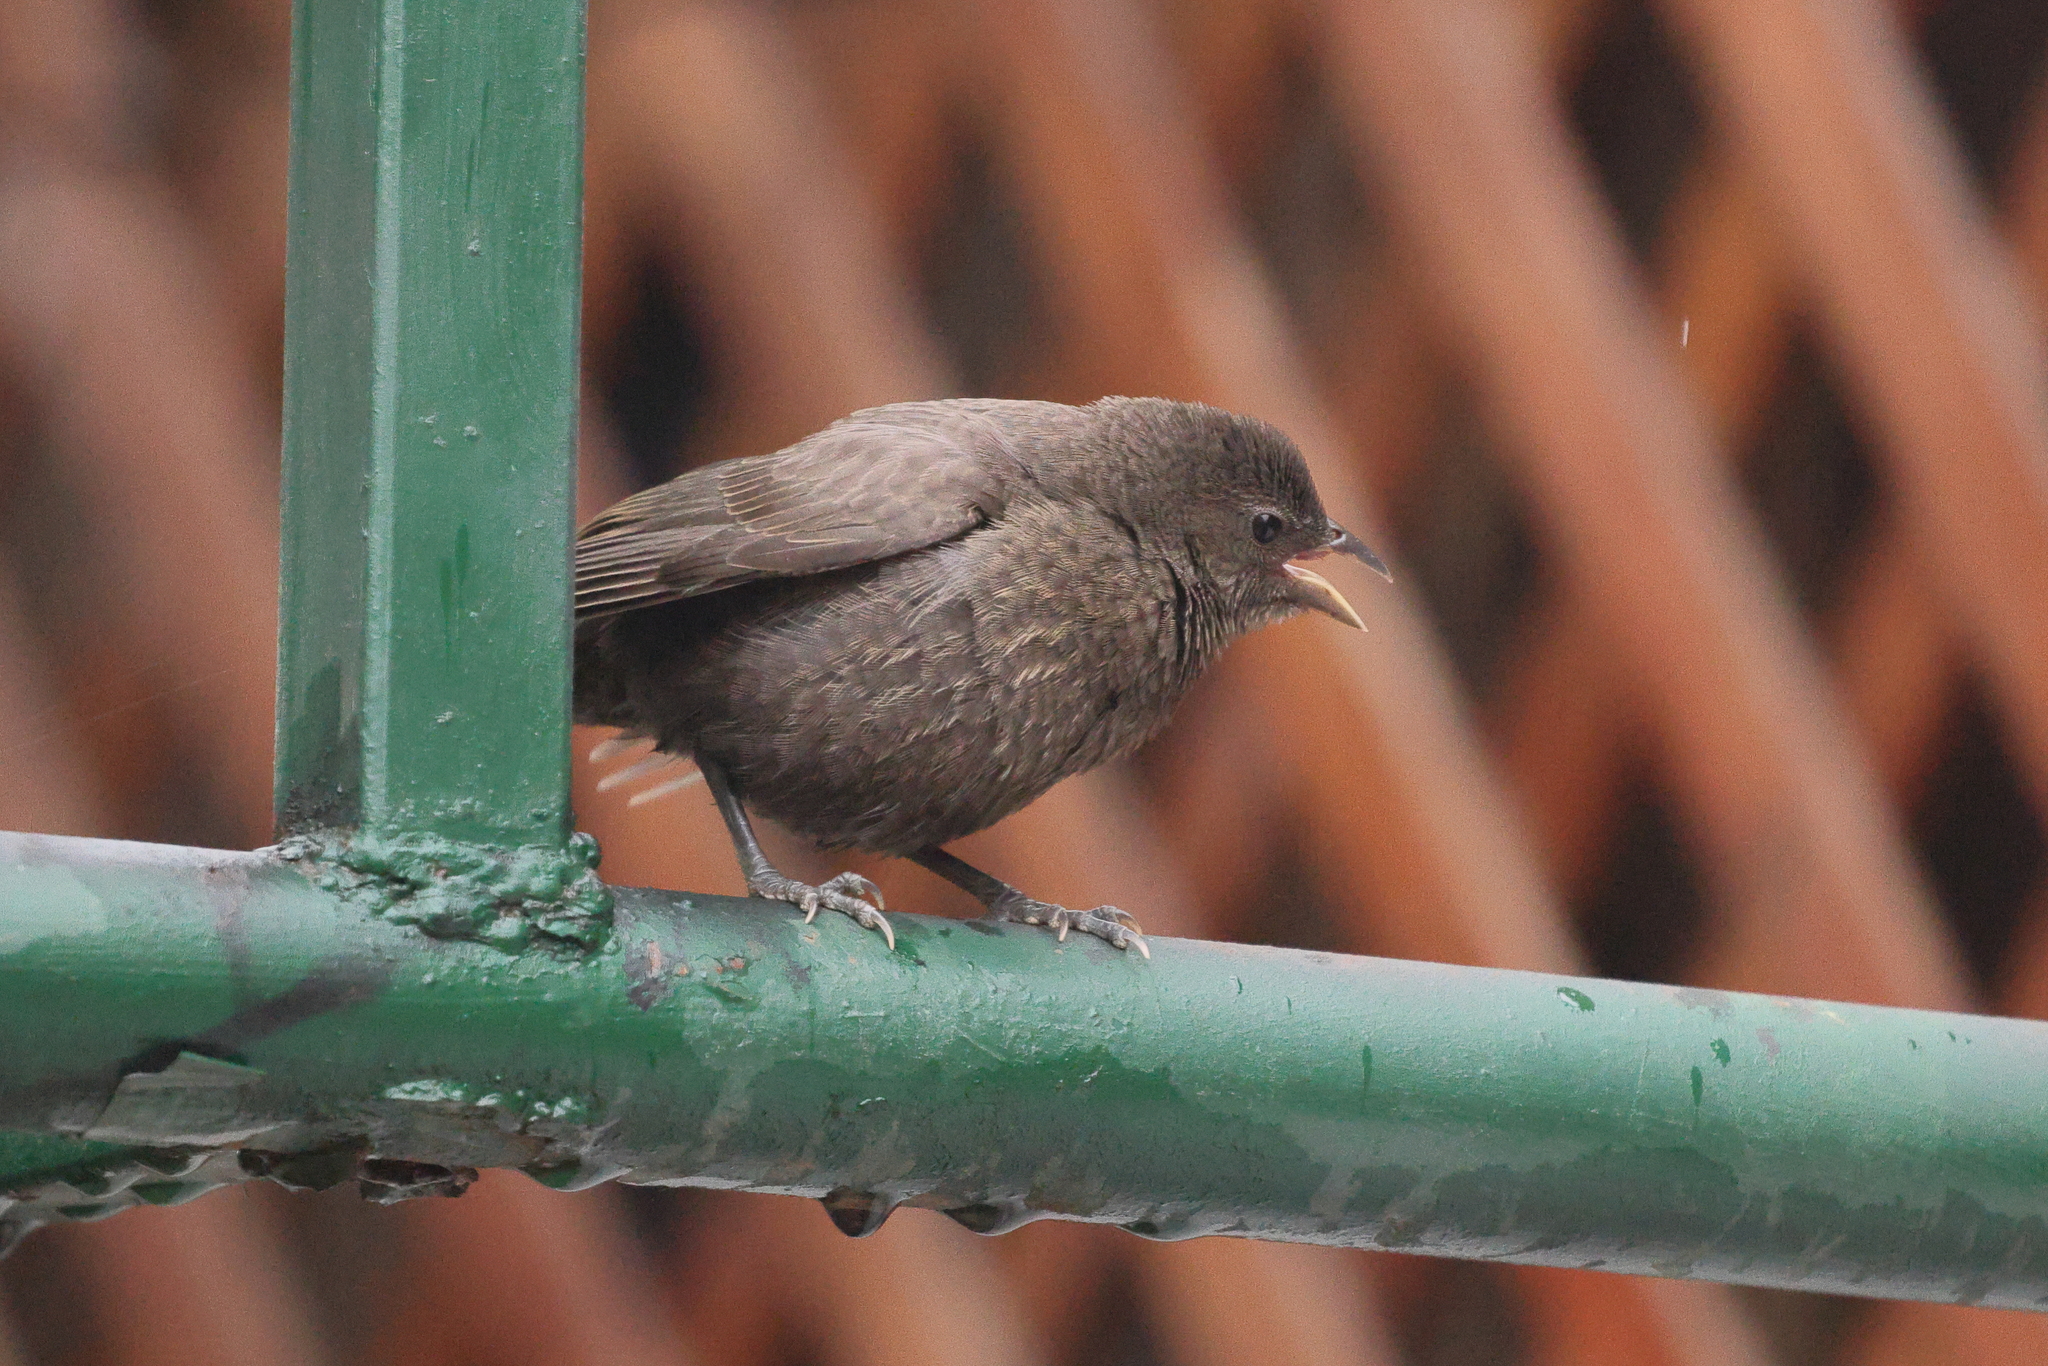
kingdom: Animalia
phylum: Chordata
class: Aves
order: Passeriformes
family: Icteridae
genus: Molothrus
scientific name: Molothrus bonariensis
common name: Shiny cowbird
